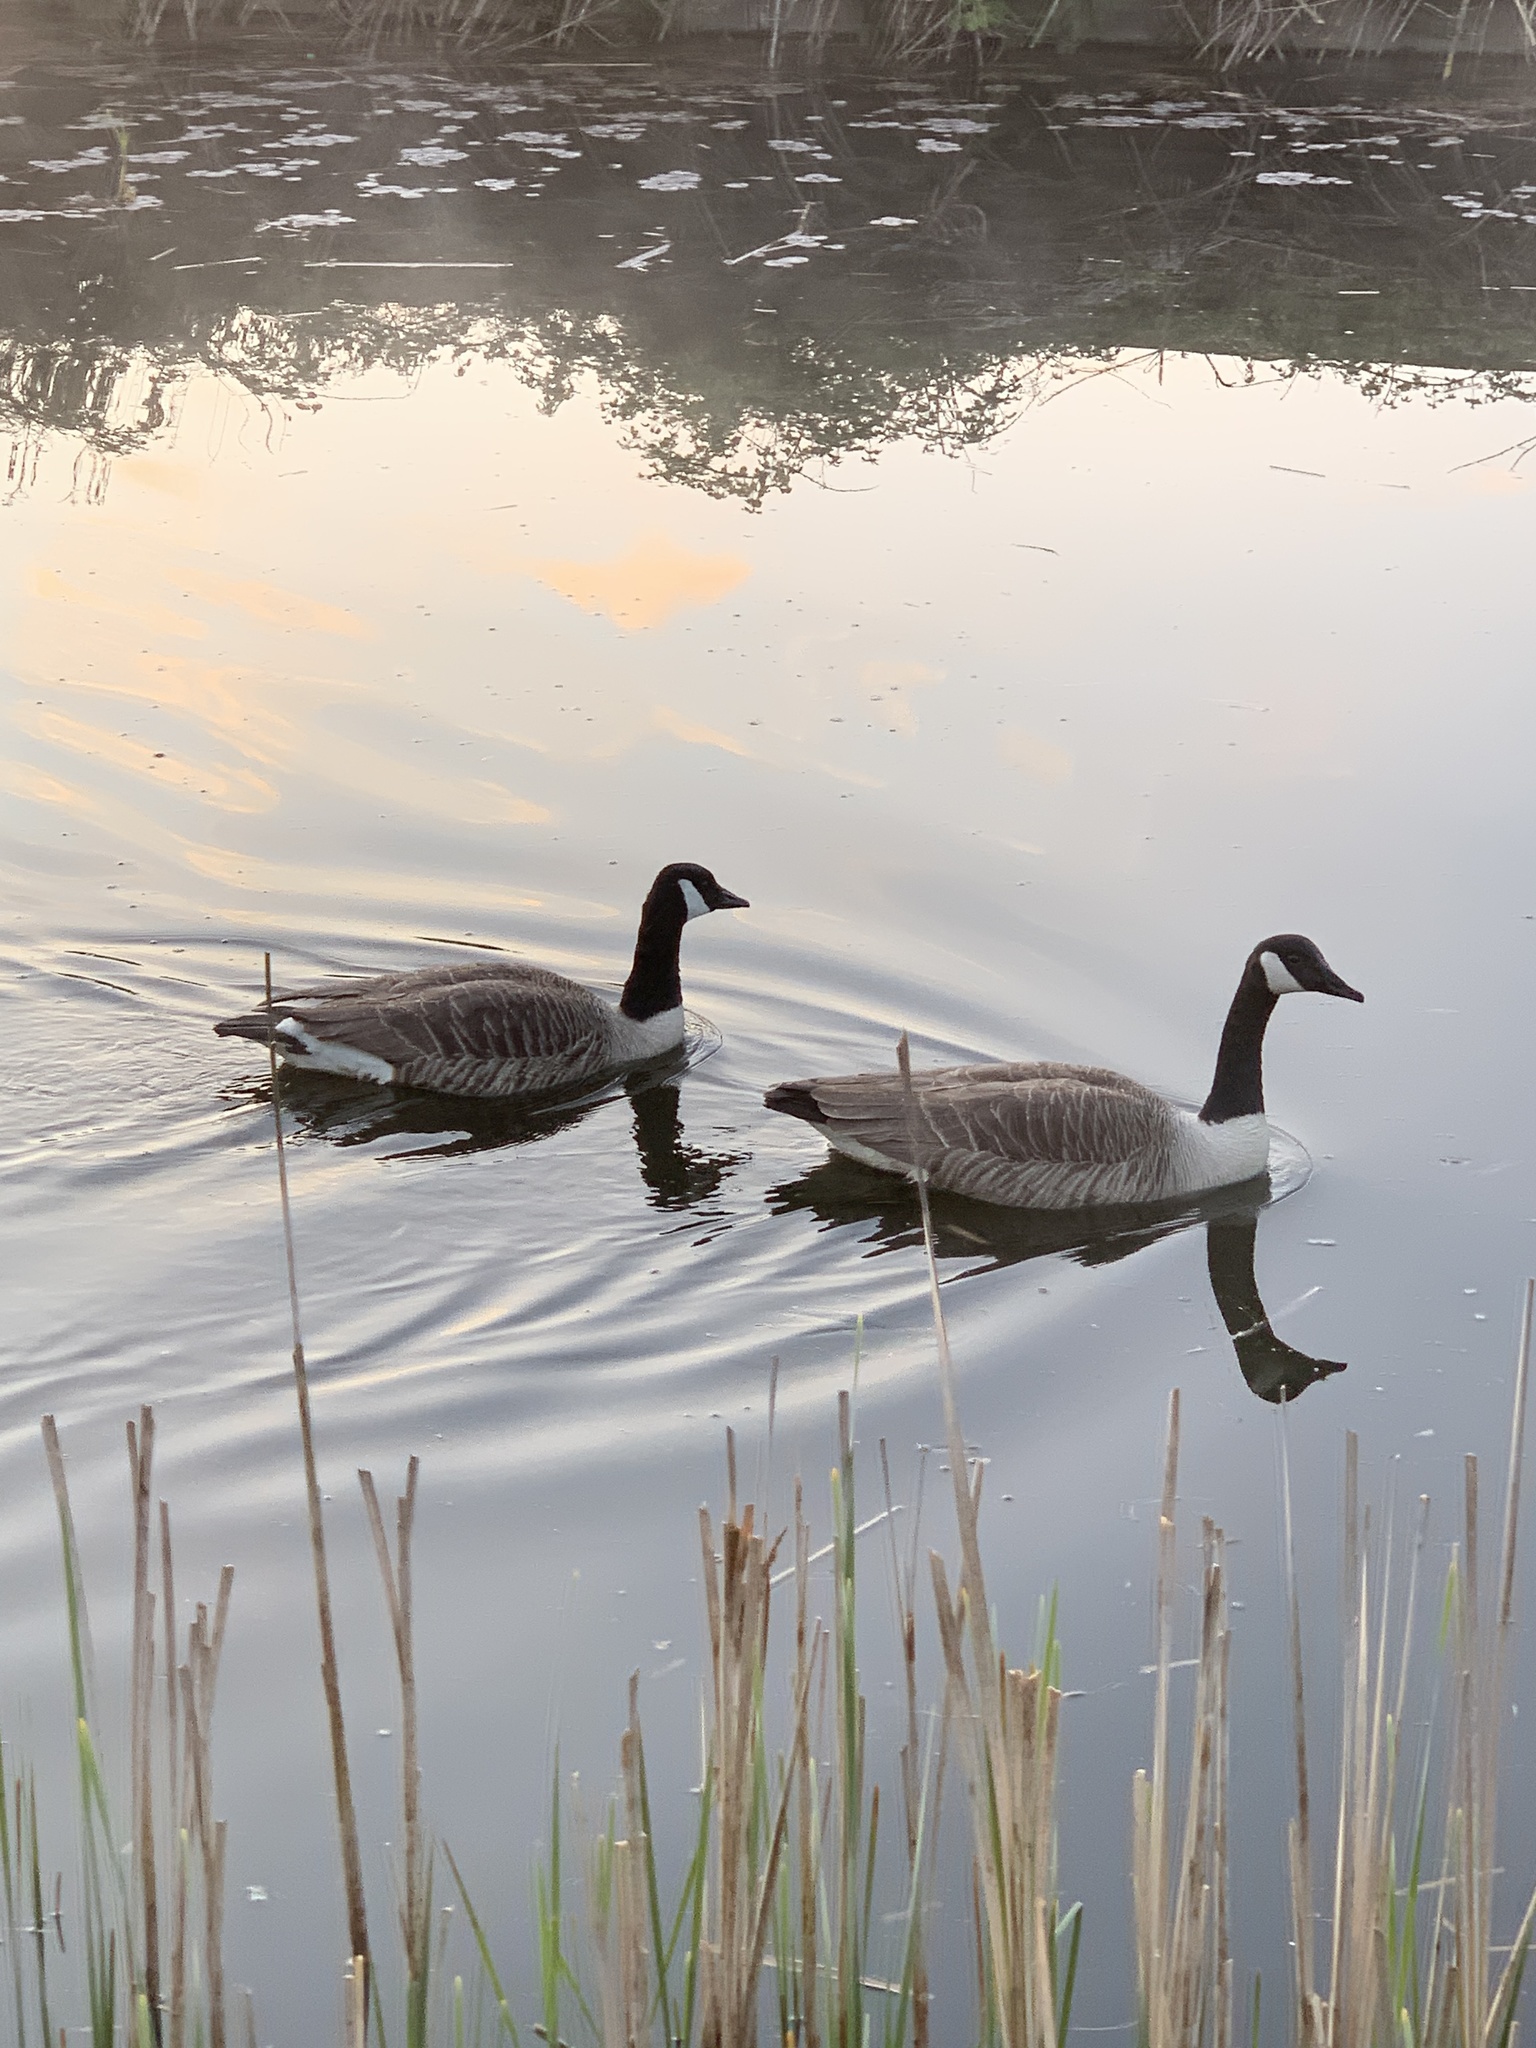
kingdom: Animalia
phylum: Chordata
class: Aves
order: Anseriformes
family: Anatidae
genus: Branta
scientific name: Branta canadensis
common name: Canada goose
